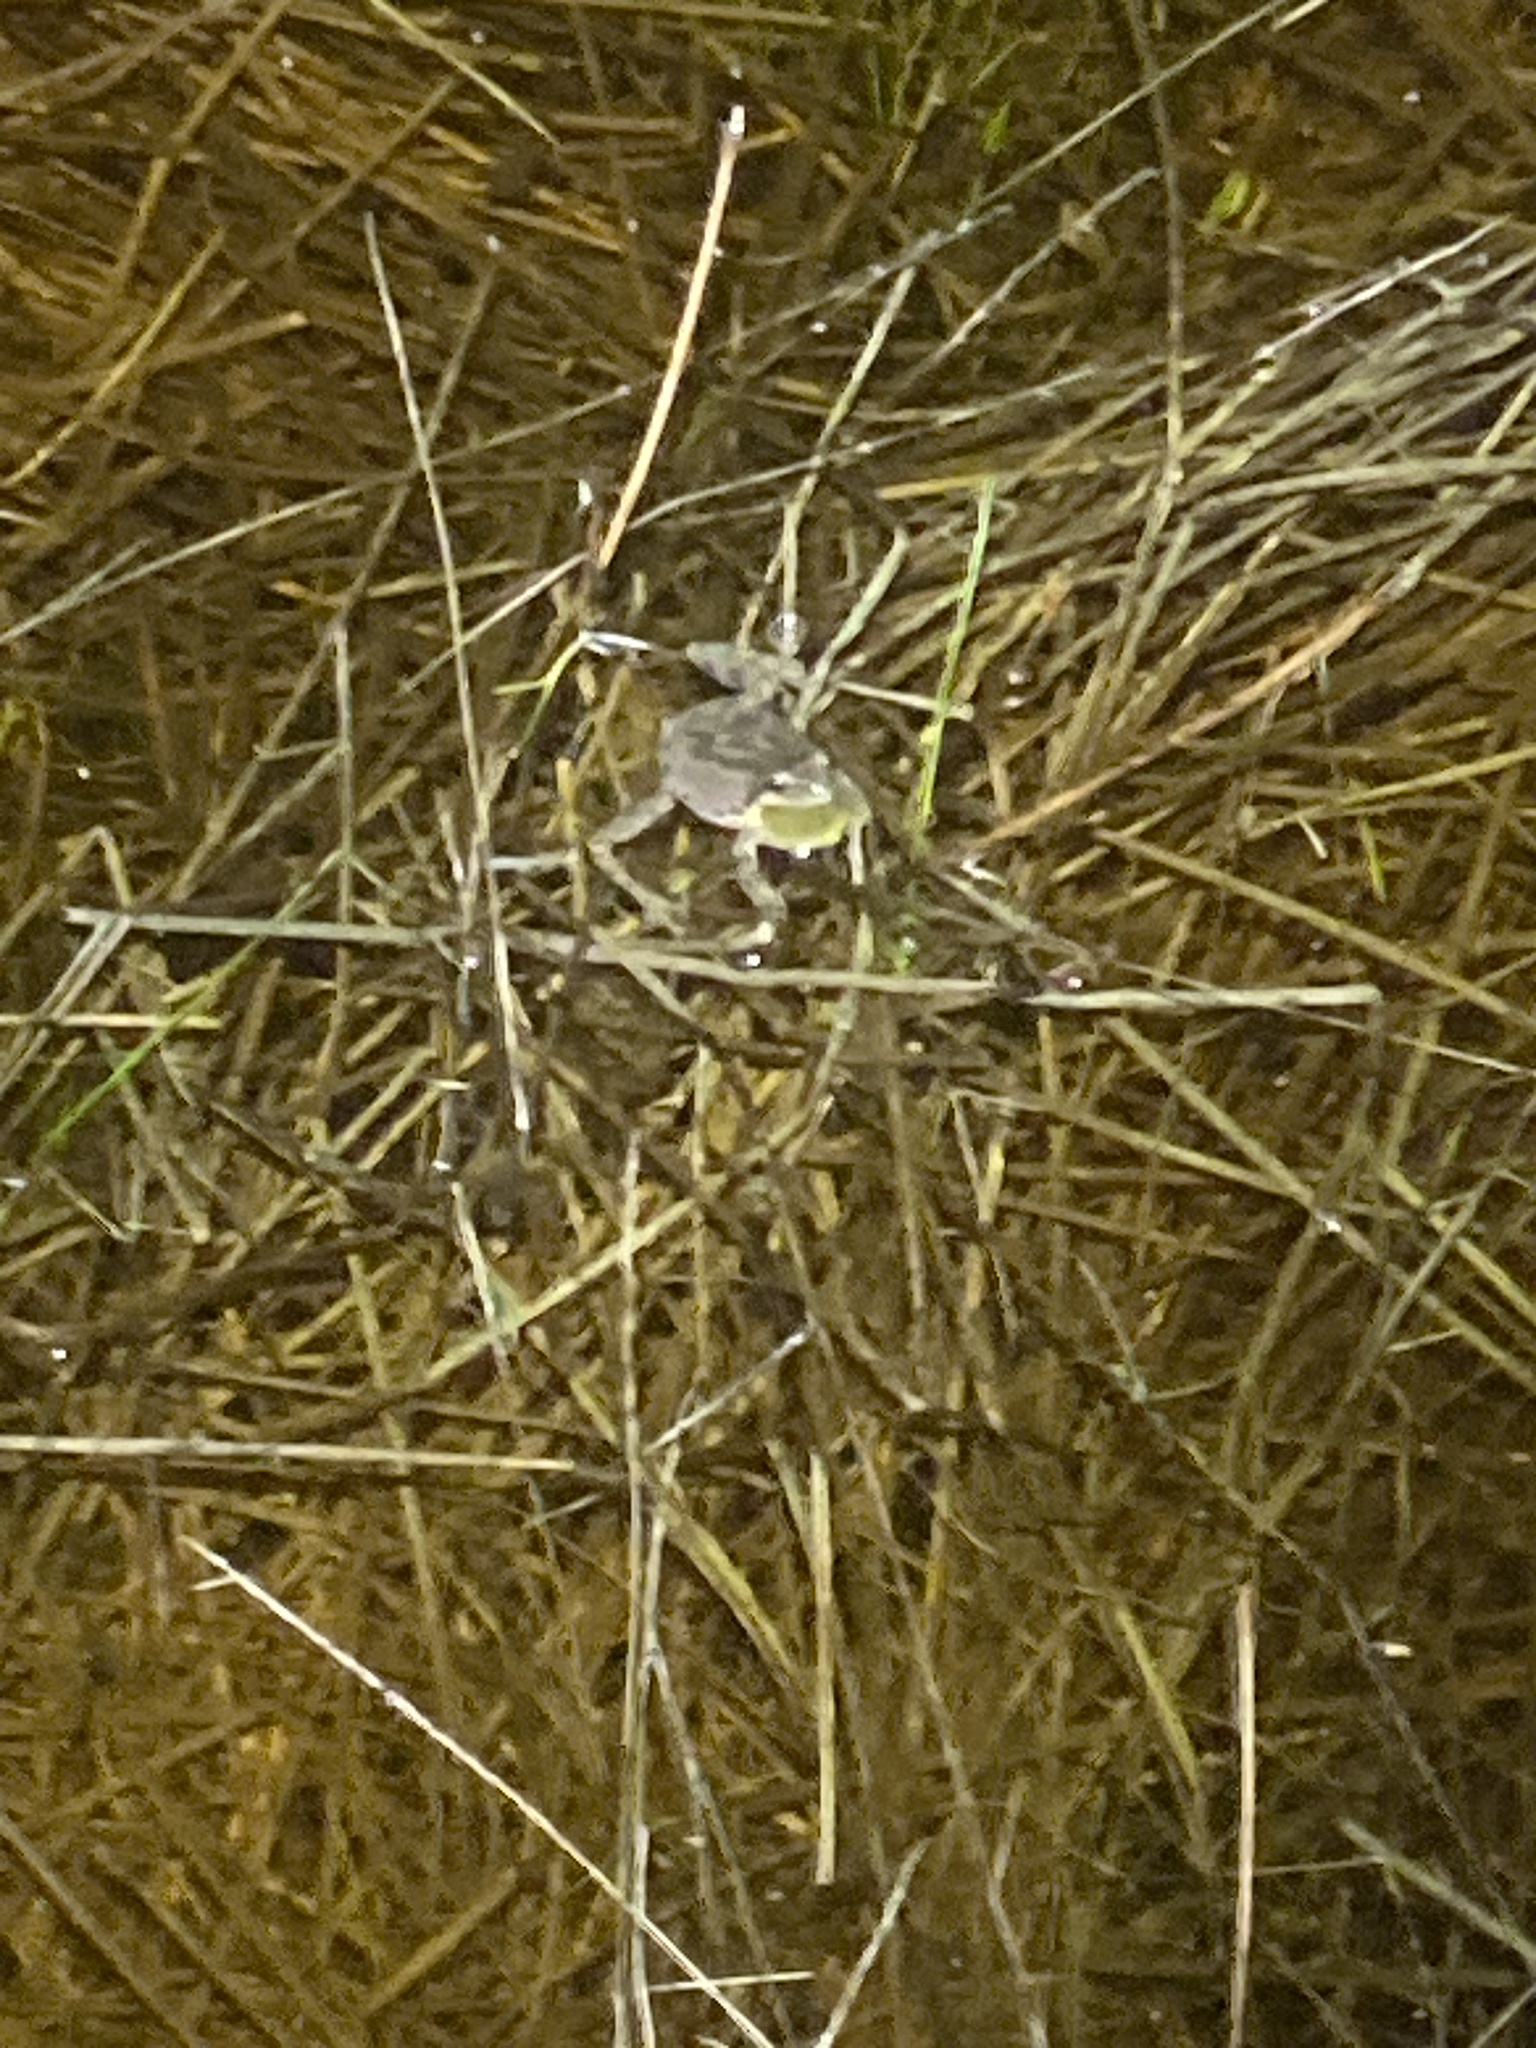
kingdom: Animalia
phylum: Chordata
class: Amphibia
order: Anura
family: Hylidae
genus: Pseudacris
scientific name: Pseudacris regilla
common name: Pacific chorus frog
